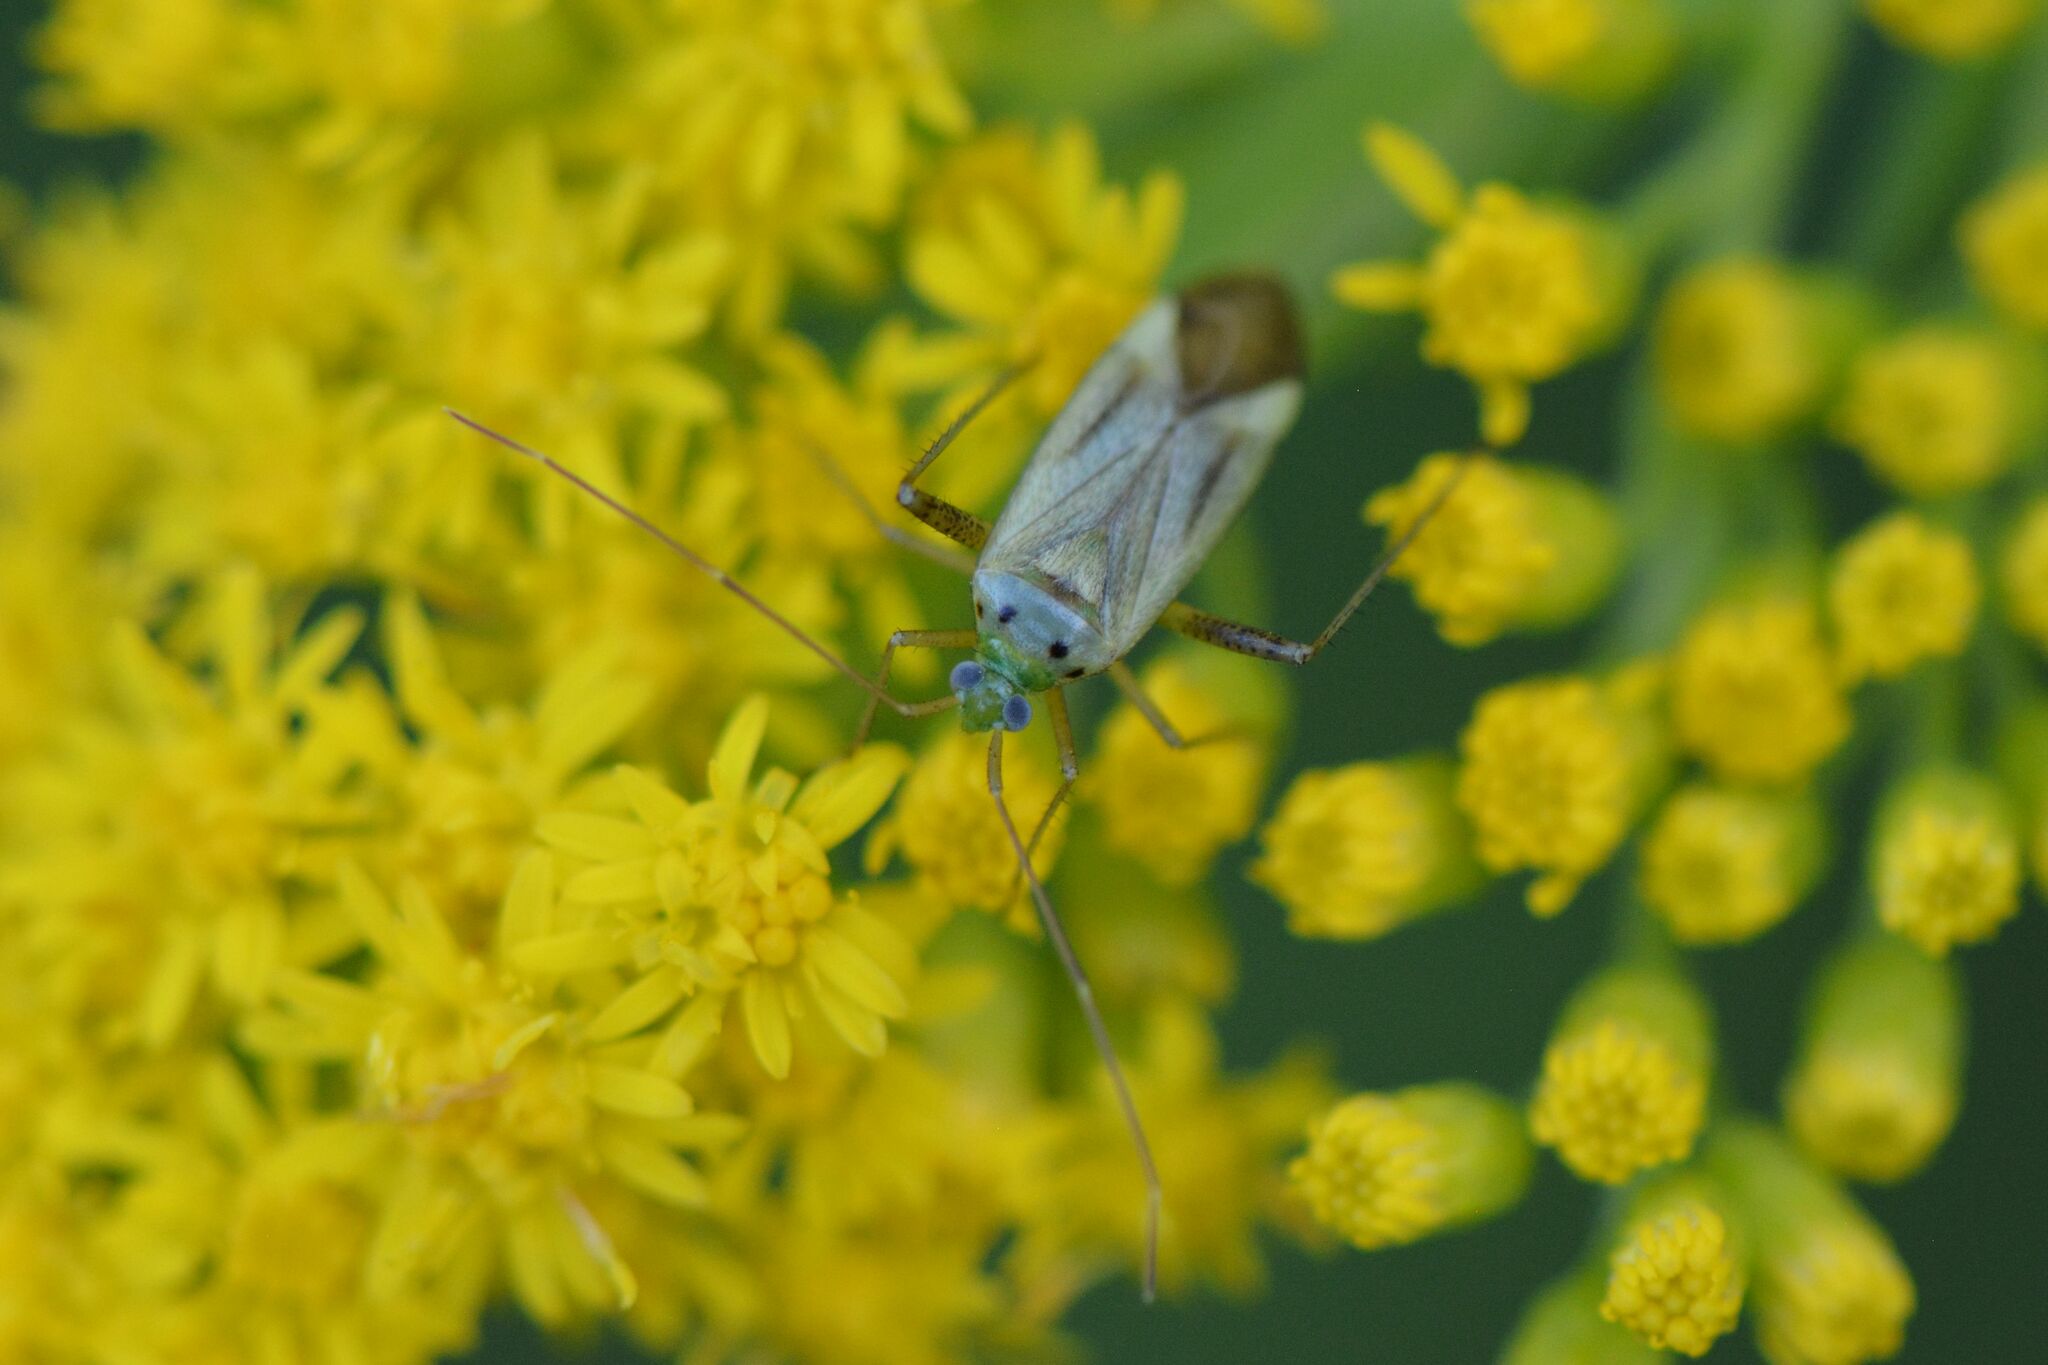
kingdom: Animalia
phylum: Arthropoda
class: Insecta
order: Hemiptera
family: Miridae
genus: Adelphocoris
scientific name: Adelphocoris quadripunctatus
